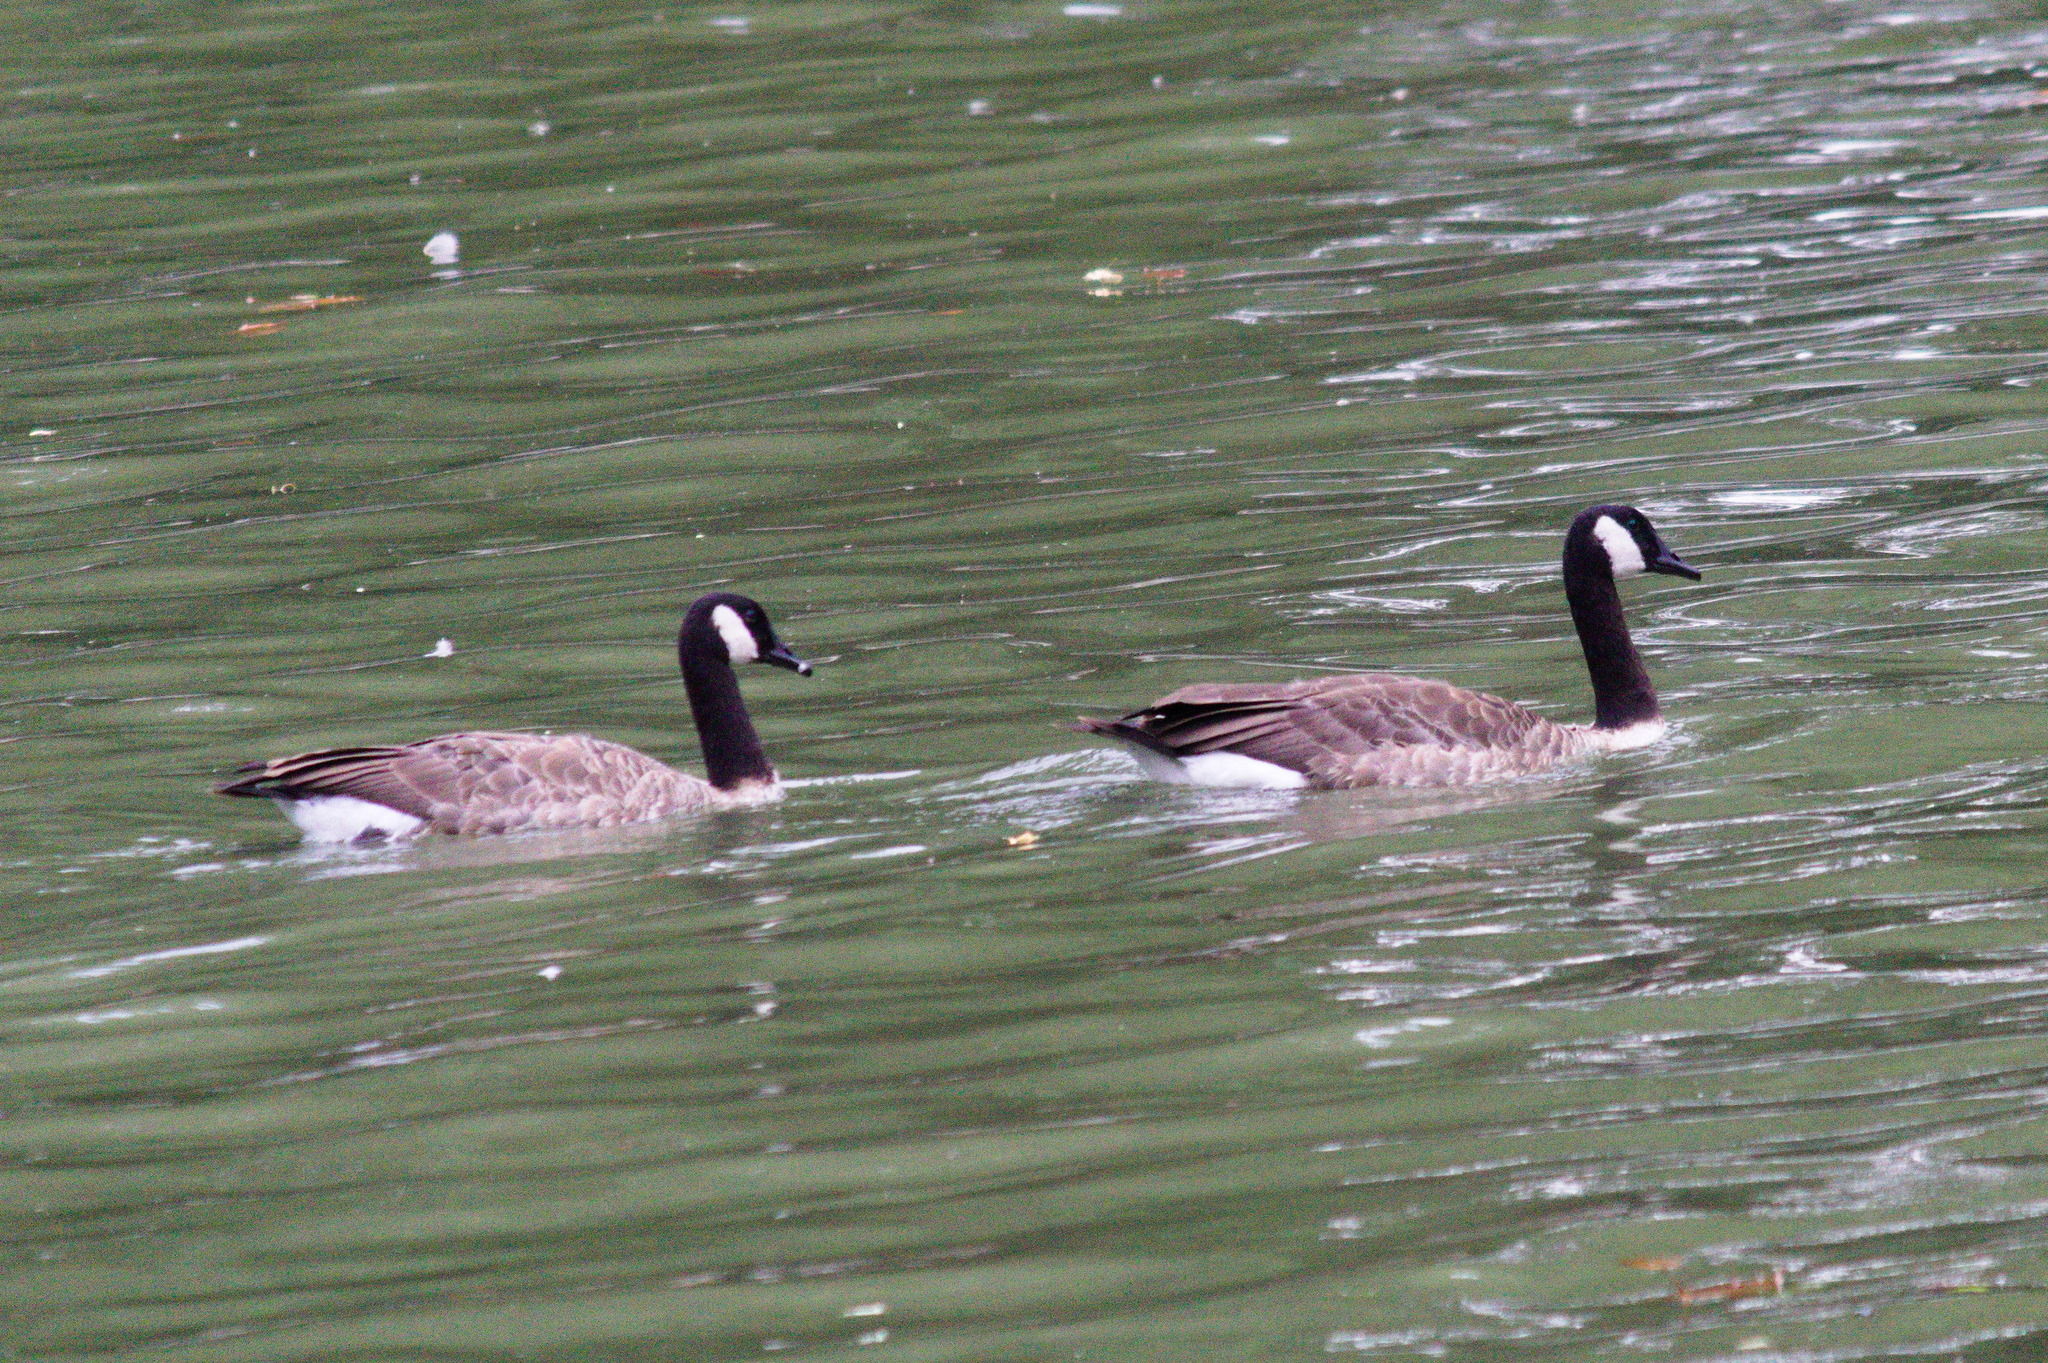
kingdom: Animalia
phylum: Chordata
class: Aves
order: Anseriformes
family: Anatidae
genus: Branta
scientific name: Branta canadensis
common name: Canada goose
